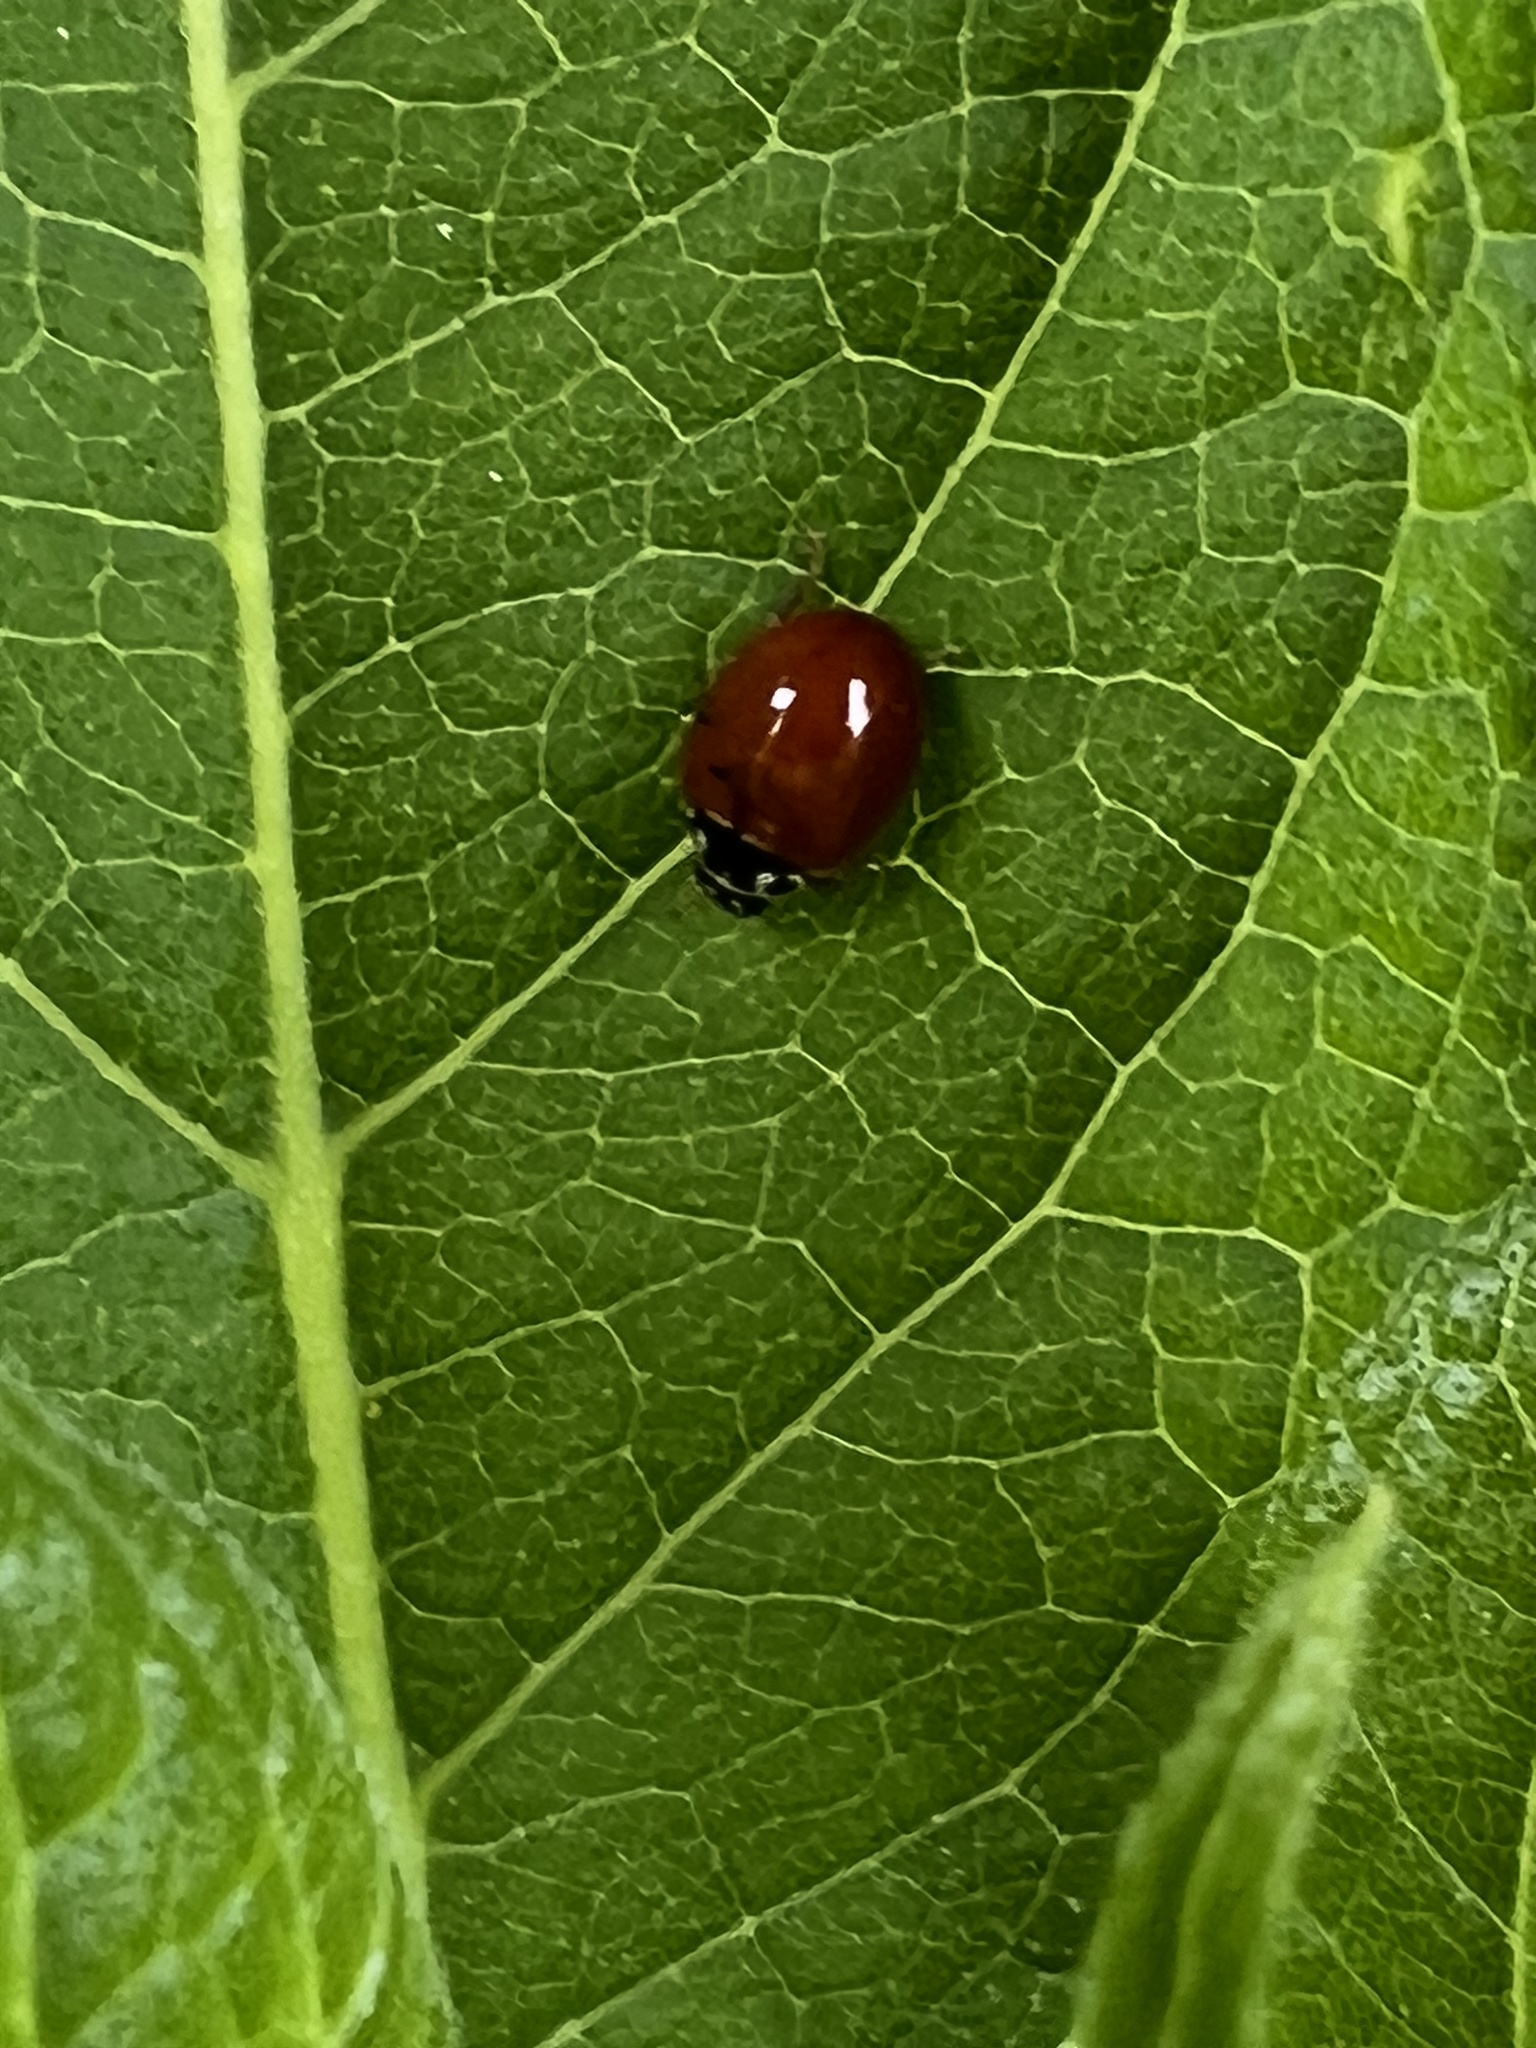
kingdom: Animalia
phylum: Arthropoda
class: Insecta
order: Coleoptera
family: Coccinellidae
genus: Cycloneda
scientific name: Cycloneda munda
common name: Polished lady beetle
